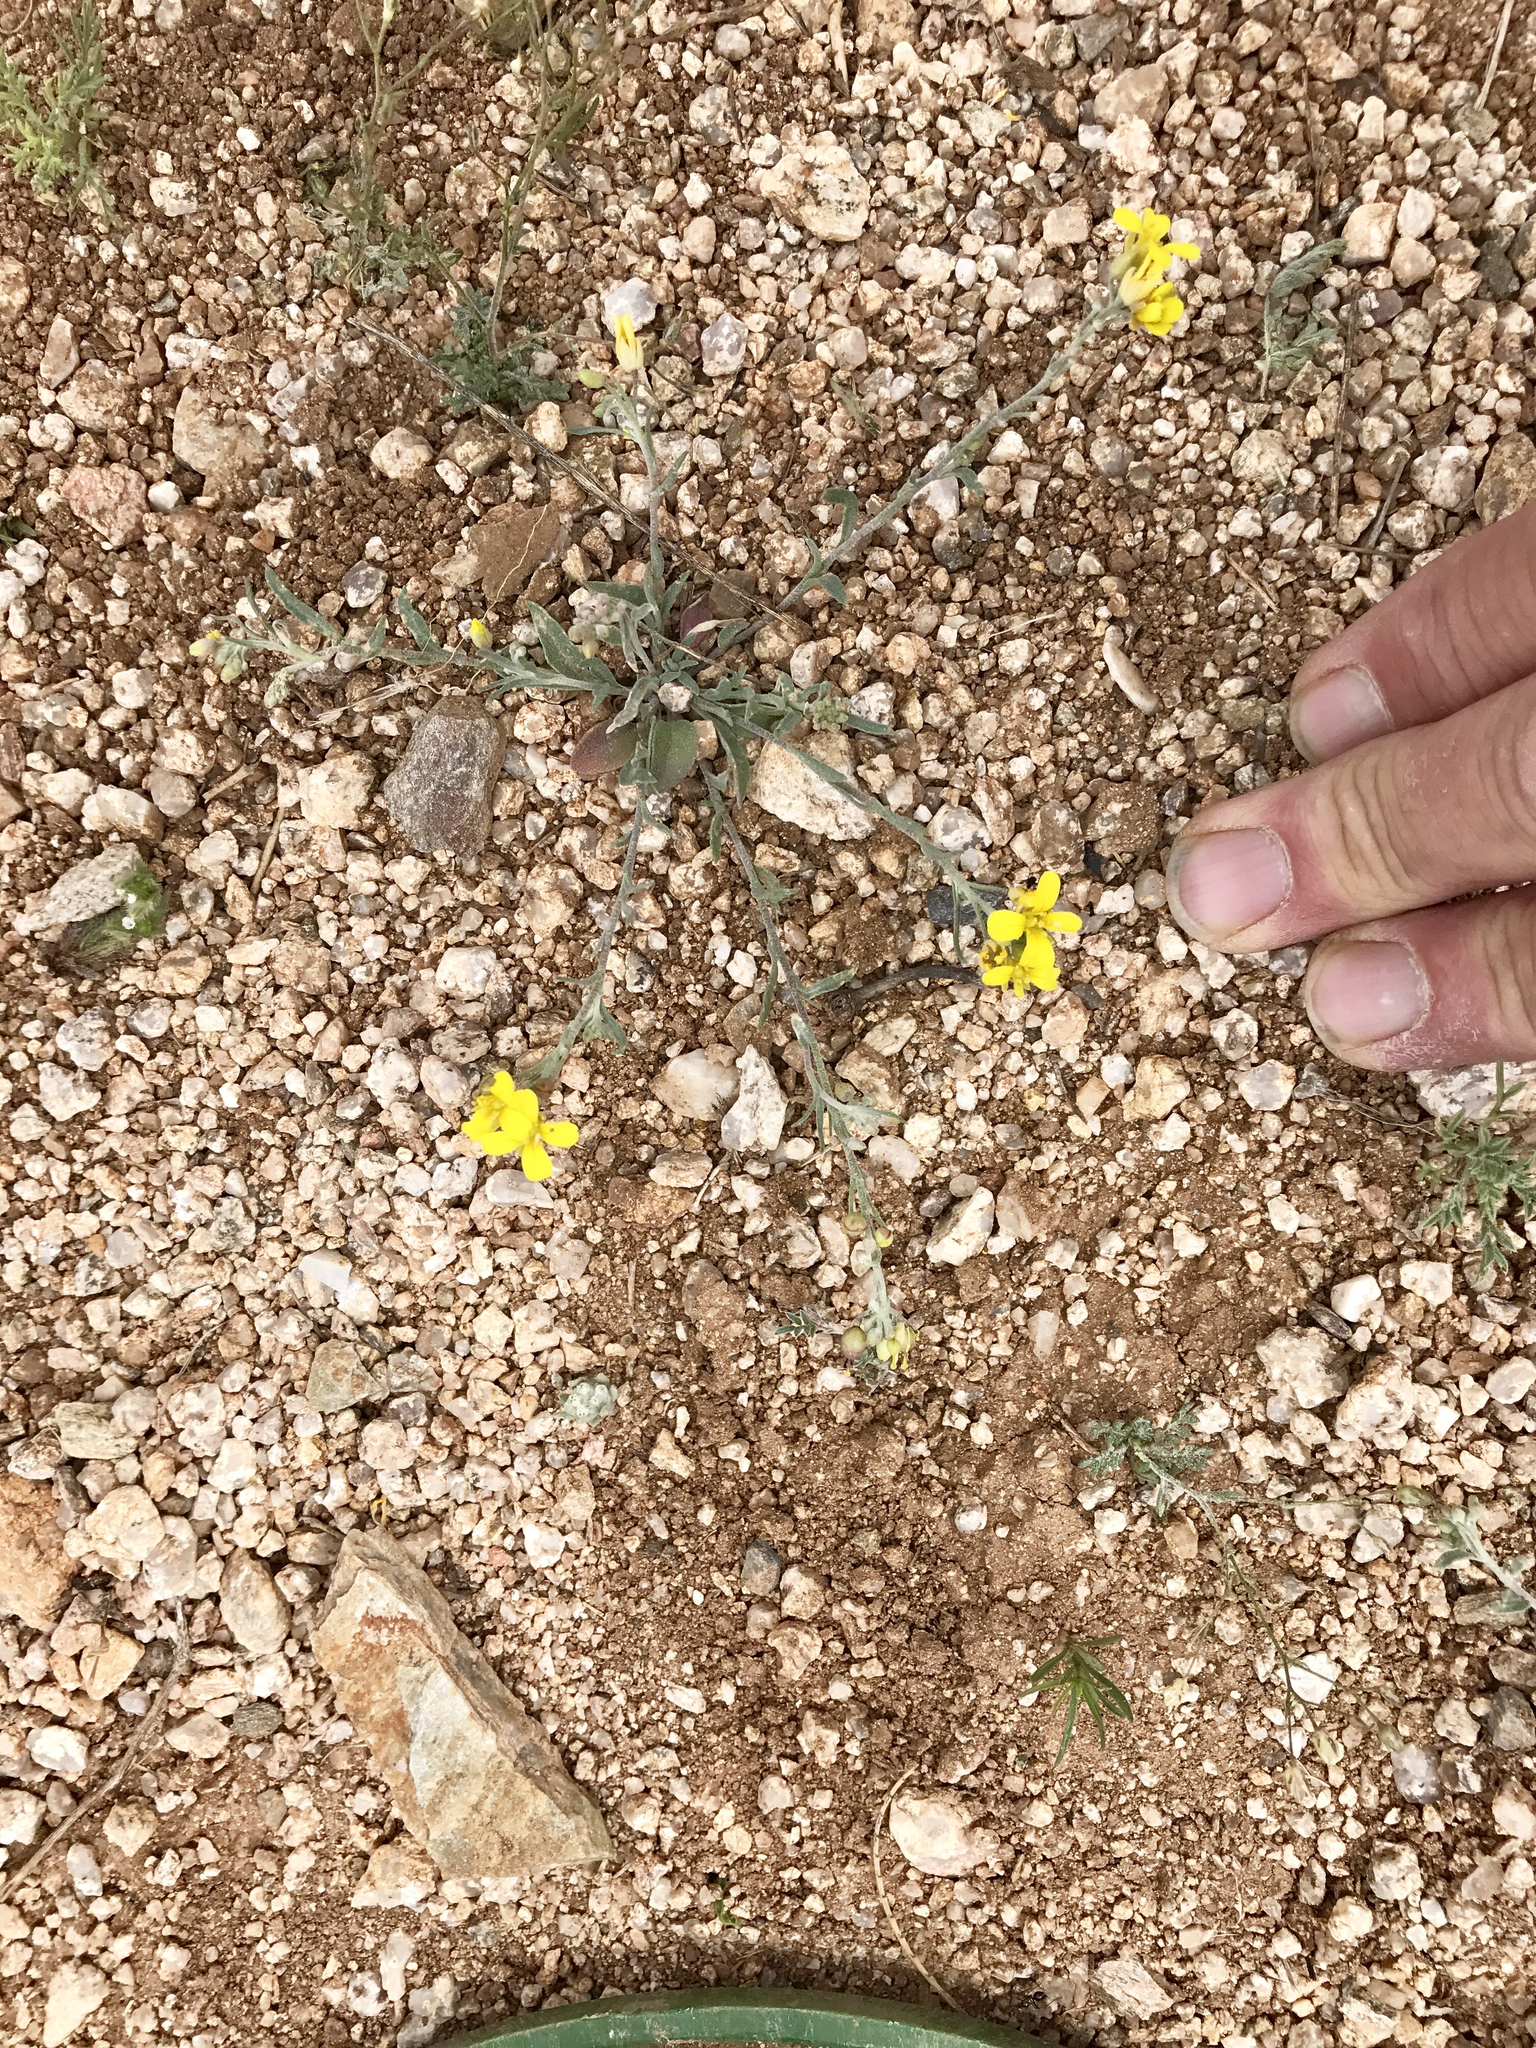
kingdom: Plantae
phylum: Tracheophyta
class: Magnoliopsida
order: Brassicales
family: Brassicaceae
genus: Physaria
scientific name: Physaria gordonii
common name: Gordon's bladderpod
